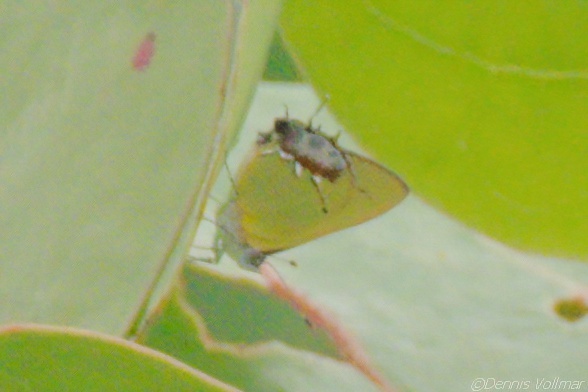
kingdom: Animalia
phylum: Arthropoda
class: Insecta
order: Lepidoptera
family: Lycaenidae
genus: Thecla
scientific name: Thecla maesites
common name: Verde azul hairstreak
